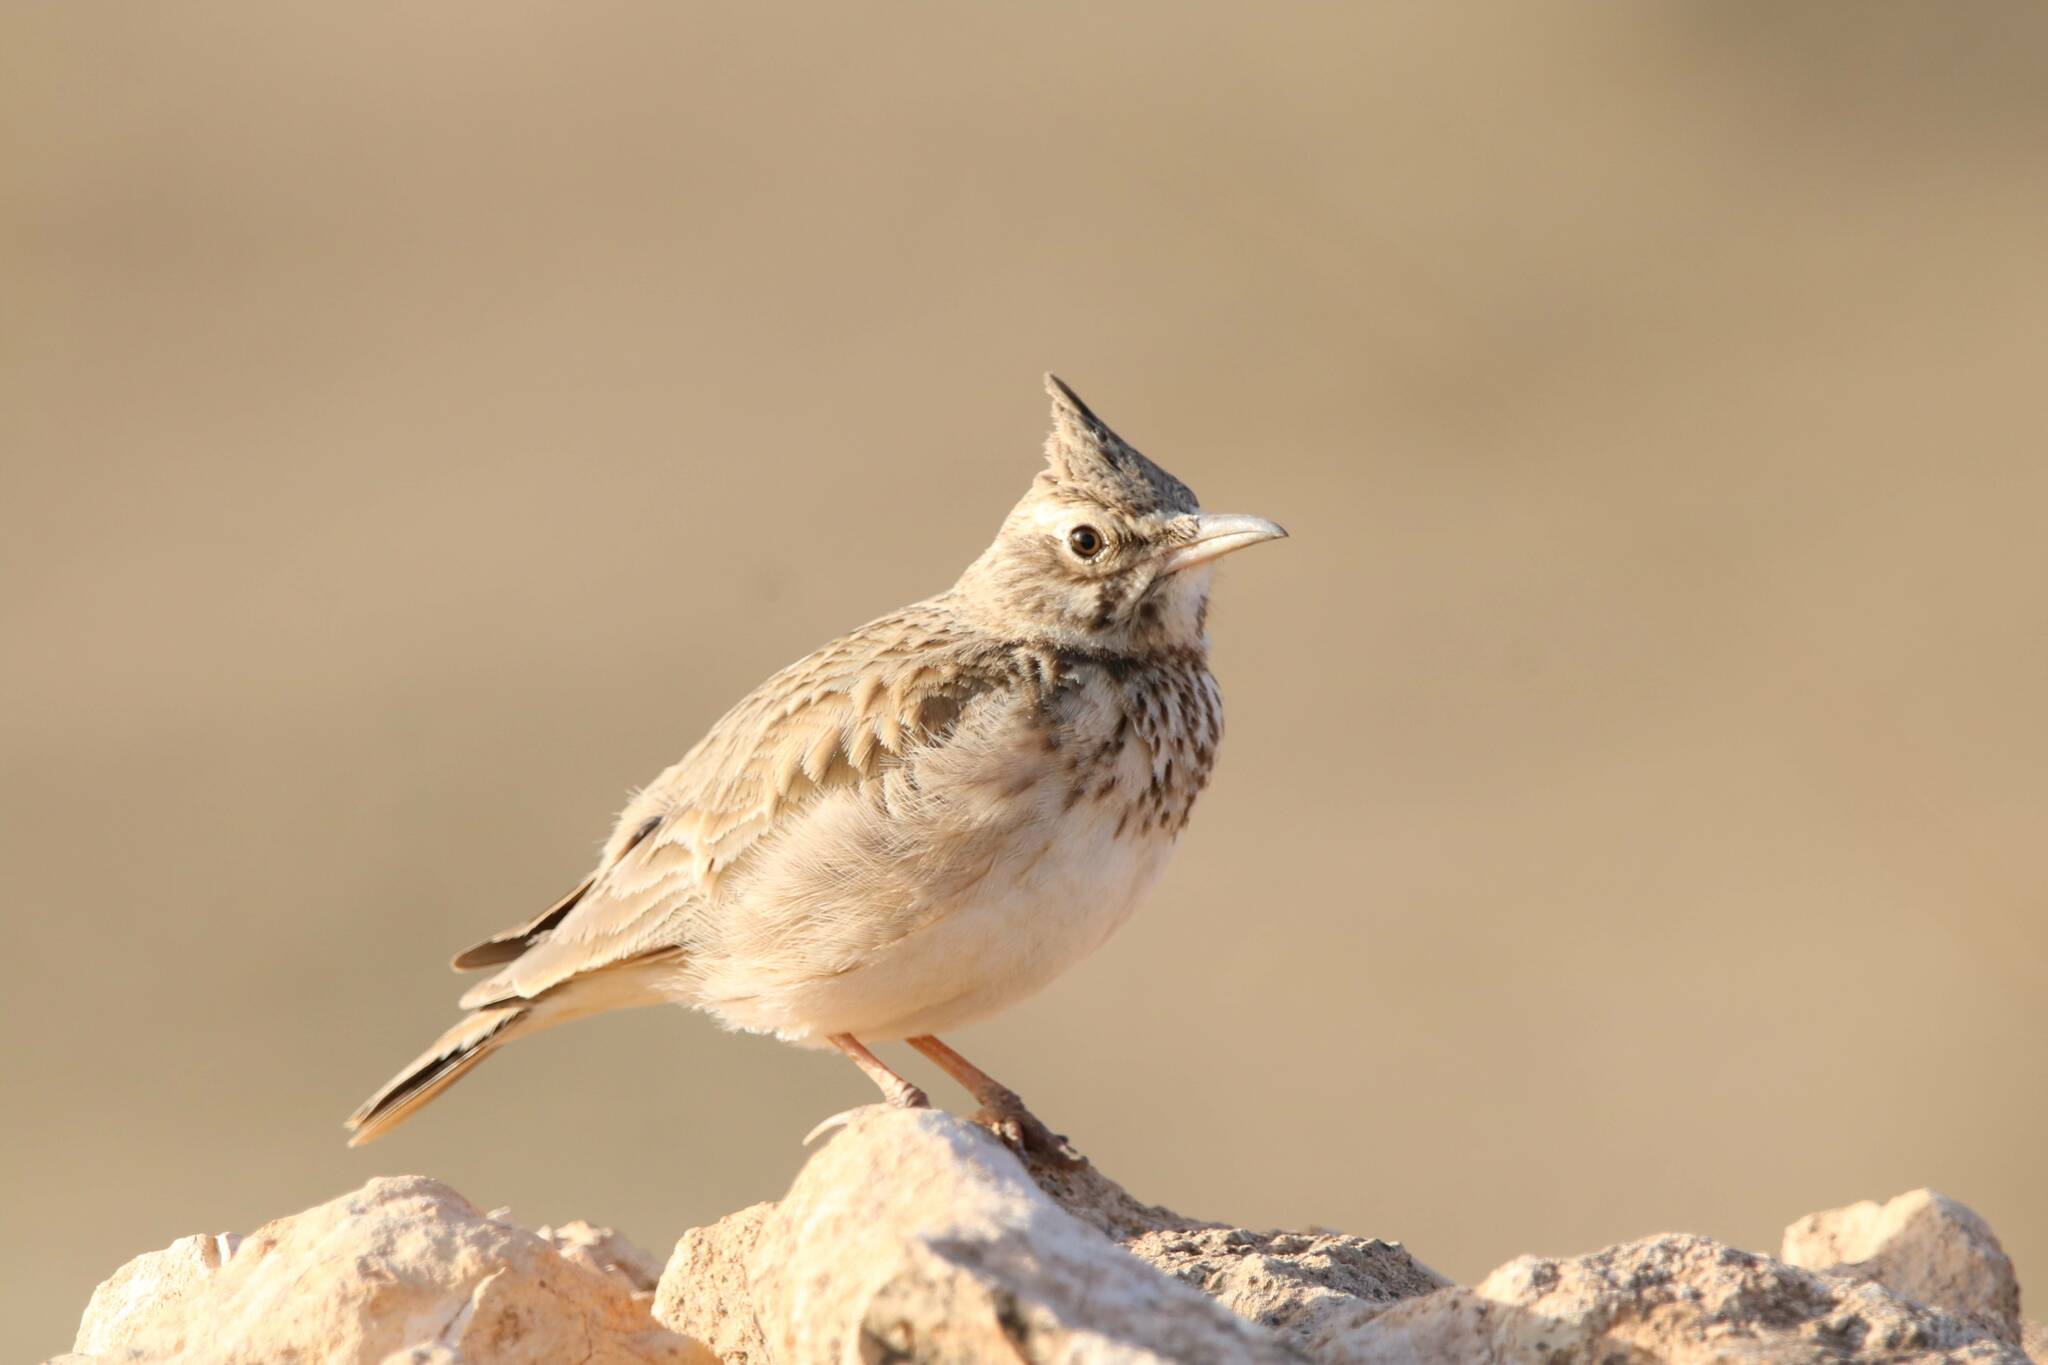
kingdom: Animalia
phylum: Chordata
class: Aves
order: Passeriformes
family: Alaudidae
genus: Galerida
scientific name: Galerida cristata
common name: Crested lark
